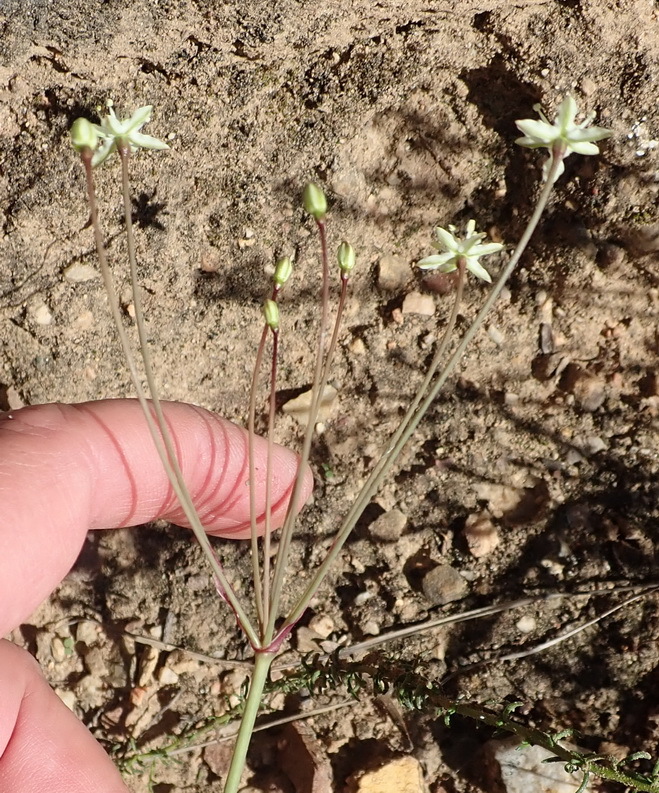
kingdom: Plantae
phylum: Tracheophyta
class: Liliopsida
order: Asparagales
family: Amaryllidaceae
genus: Strumaria
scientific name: Strumaria gemmata
